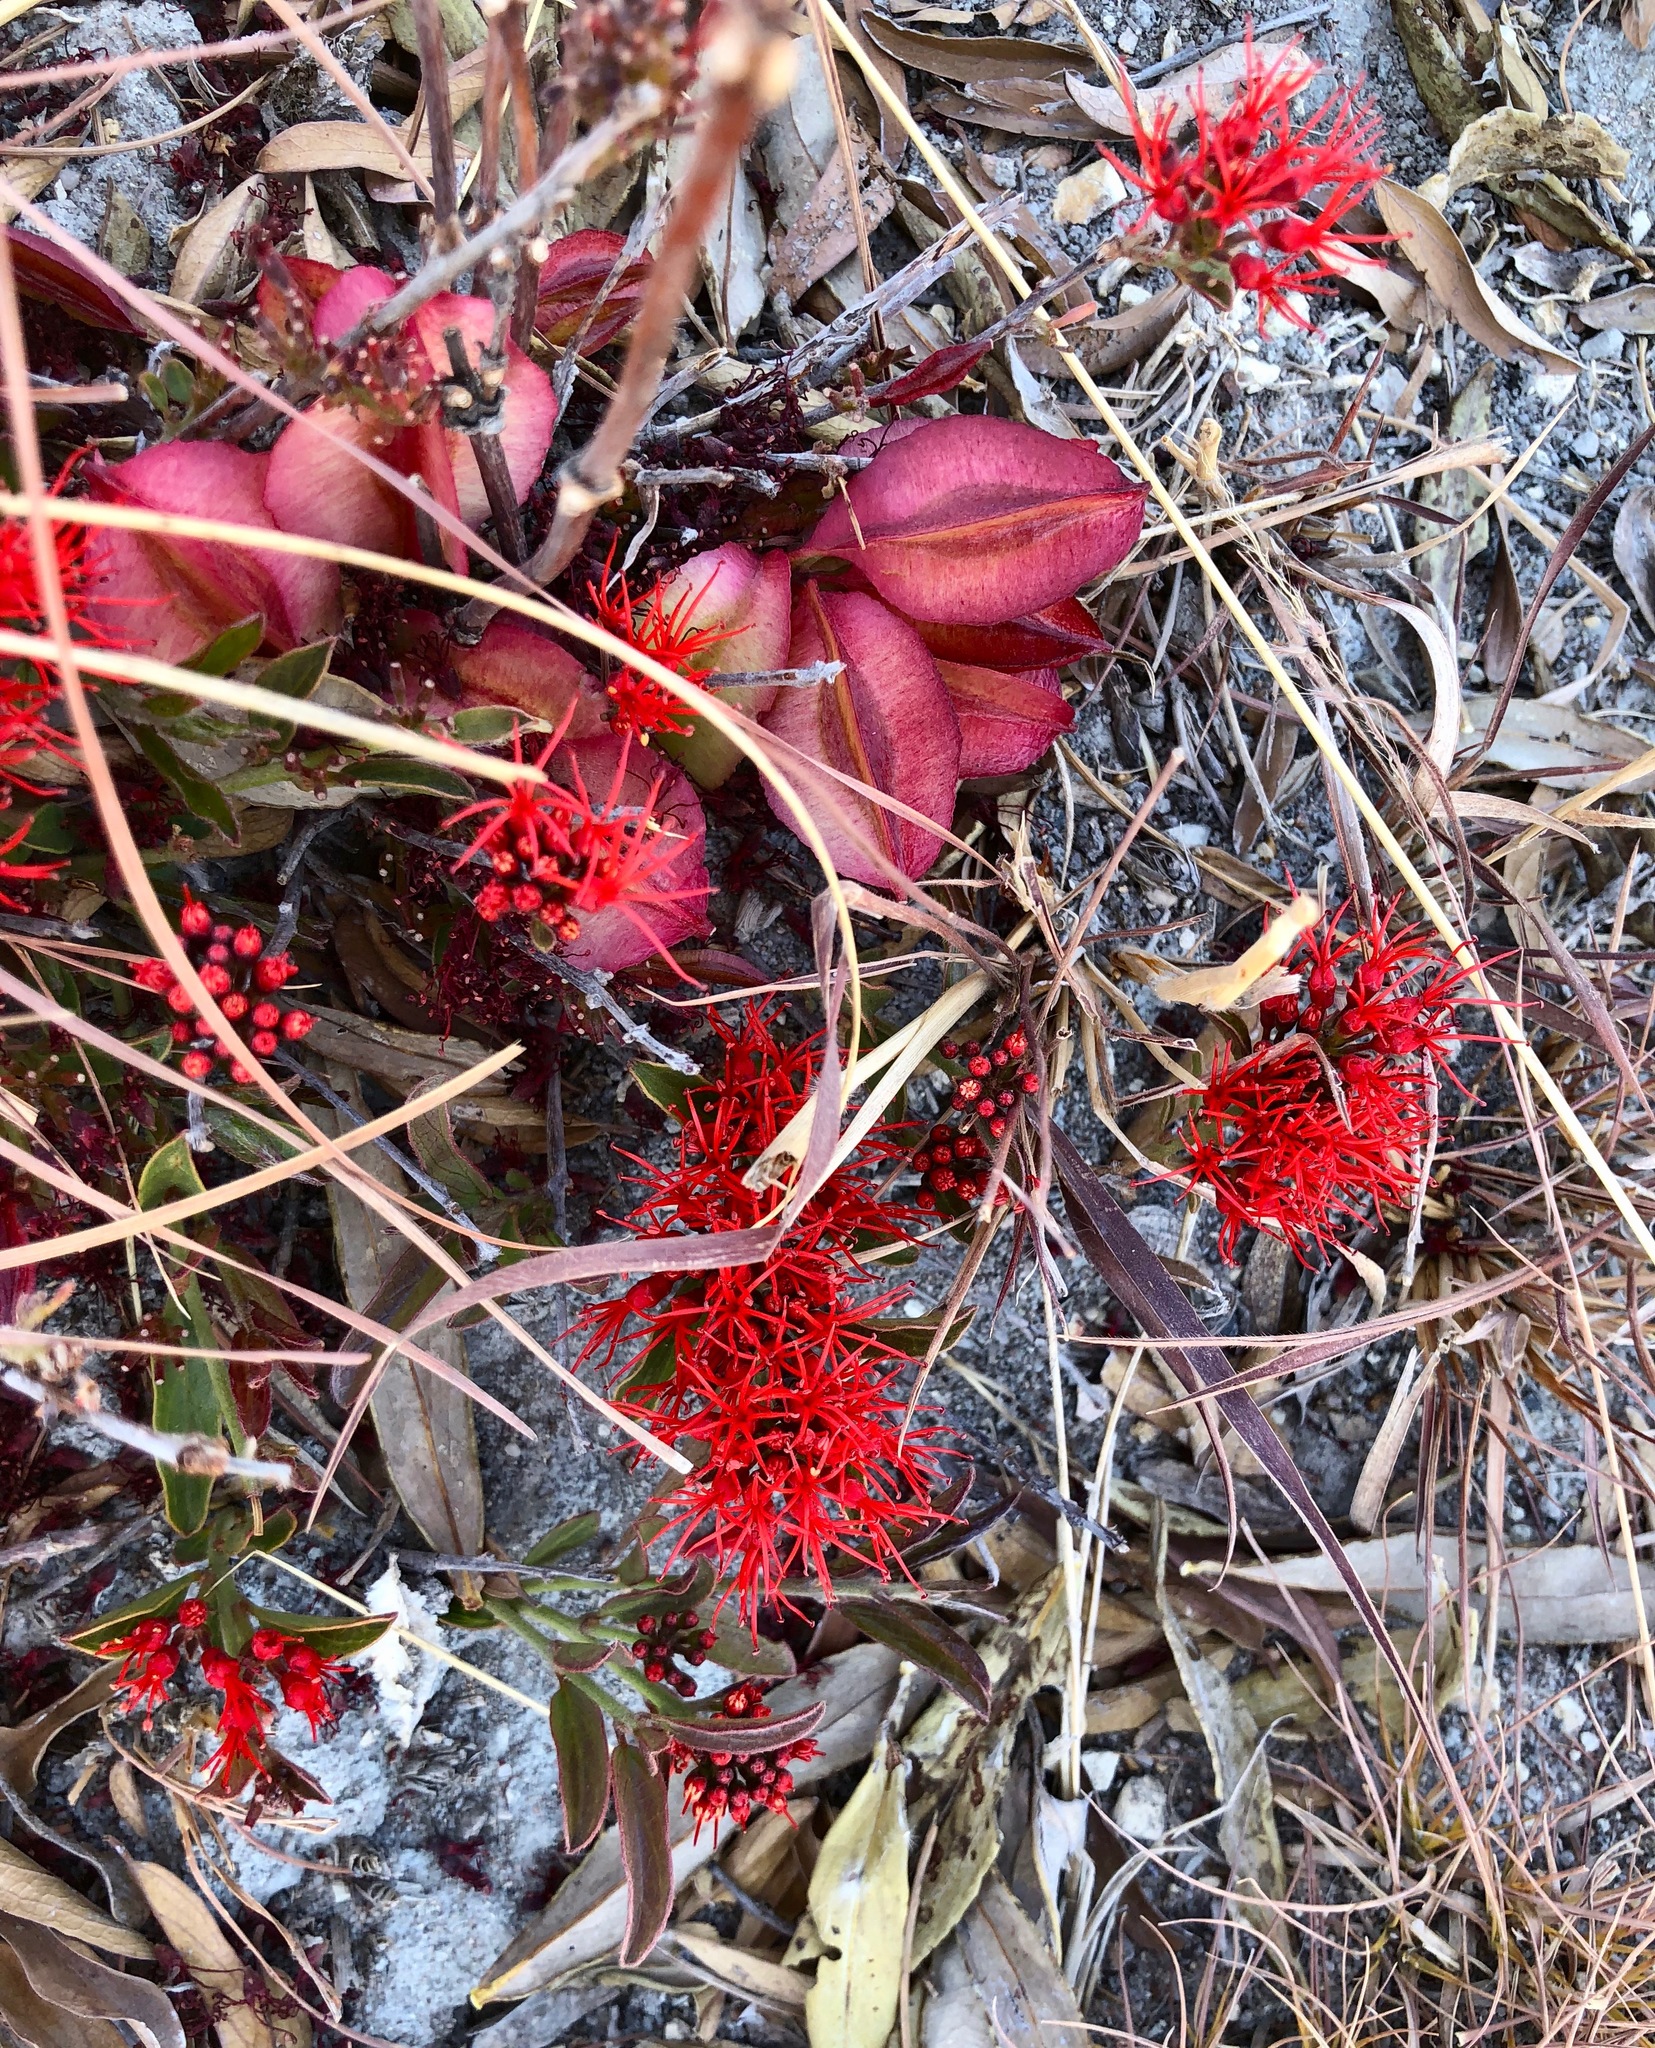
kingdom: Plantae
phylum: Tracheophyta
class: Magnoliopsida
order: Myrtales
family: Combretaceae
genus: Combretum
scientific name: Combretum platypetalum
